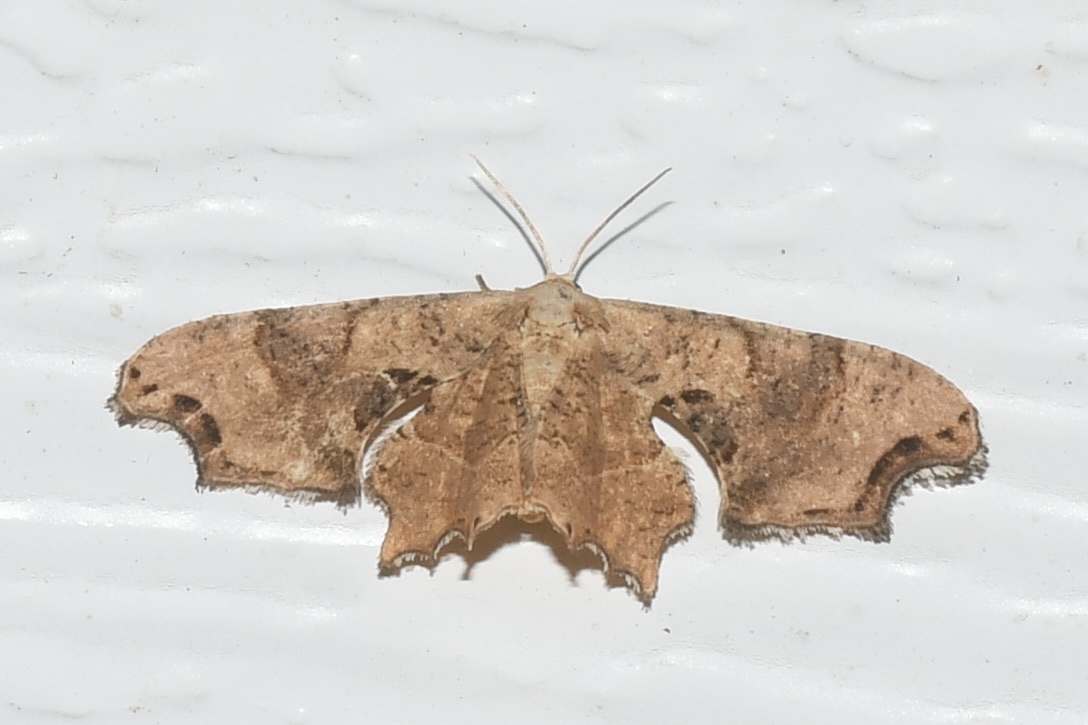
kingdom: Animalia
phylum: Arthropoda
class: Insecta
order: Lepidoptera
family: Uraniidae
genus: Epiplema
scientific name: Epiplema Calledapteryx dryopterata
